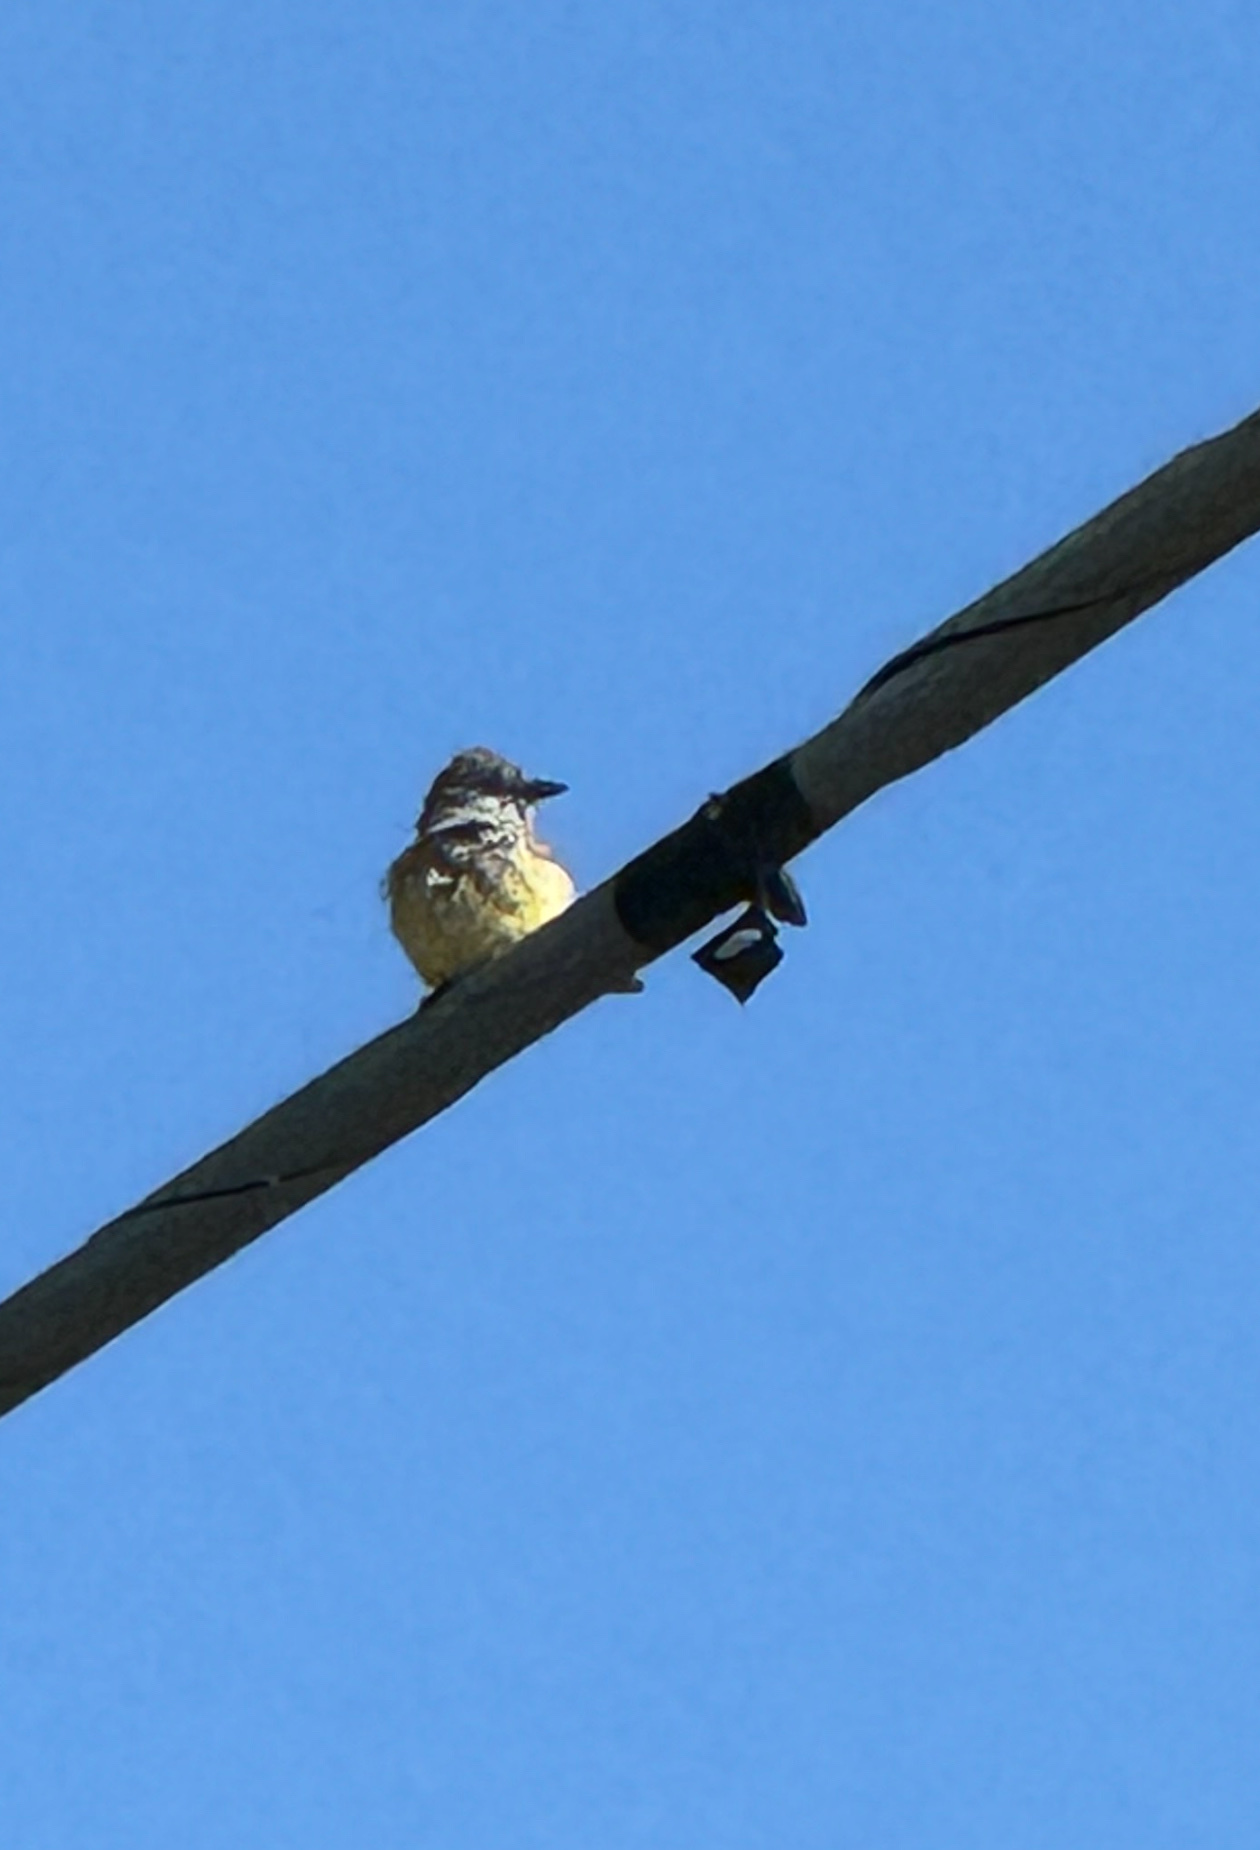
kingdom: Animalia
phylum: Chordata
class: Aves
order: Passeriformes
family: Tyrannidae
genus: Tyrannus
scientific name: Tyrannus vociferans
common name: Cassin's kingbird
